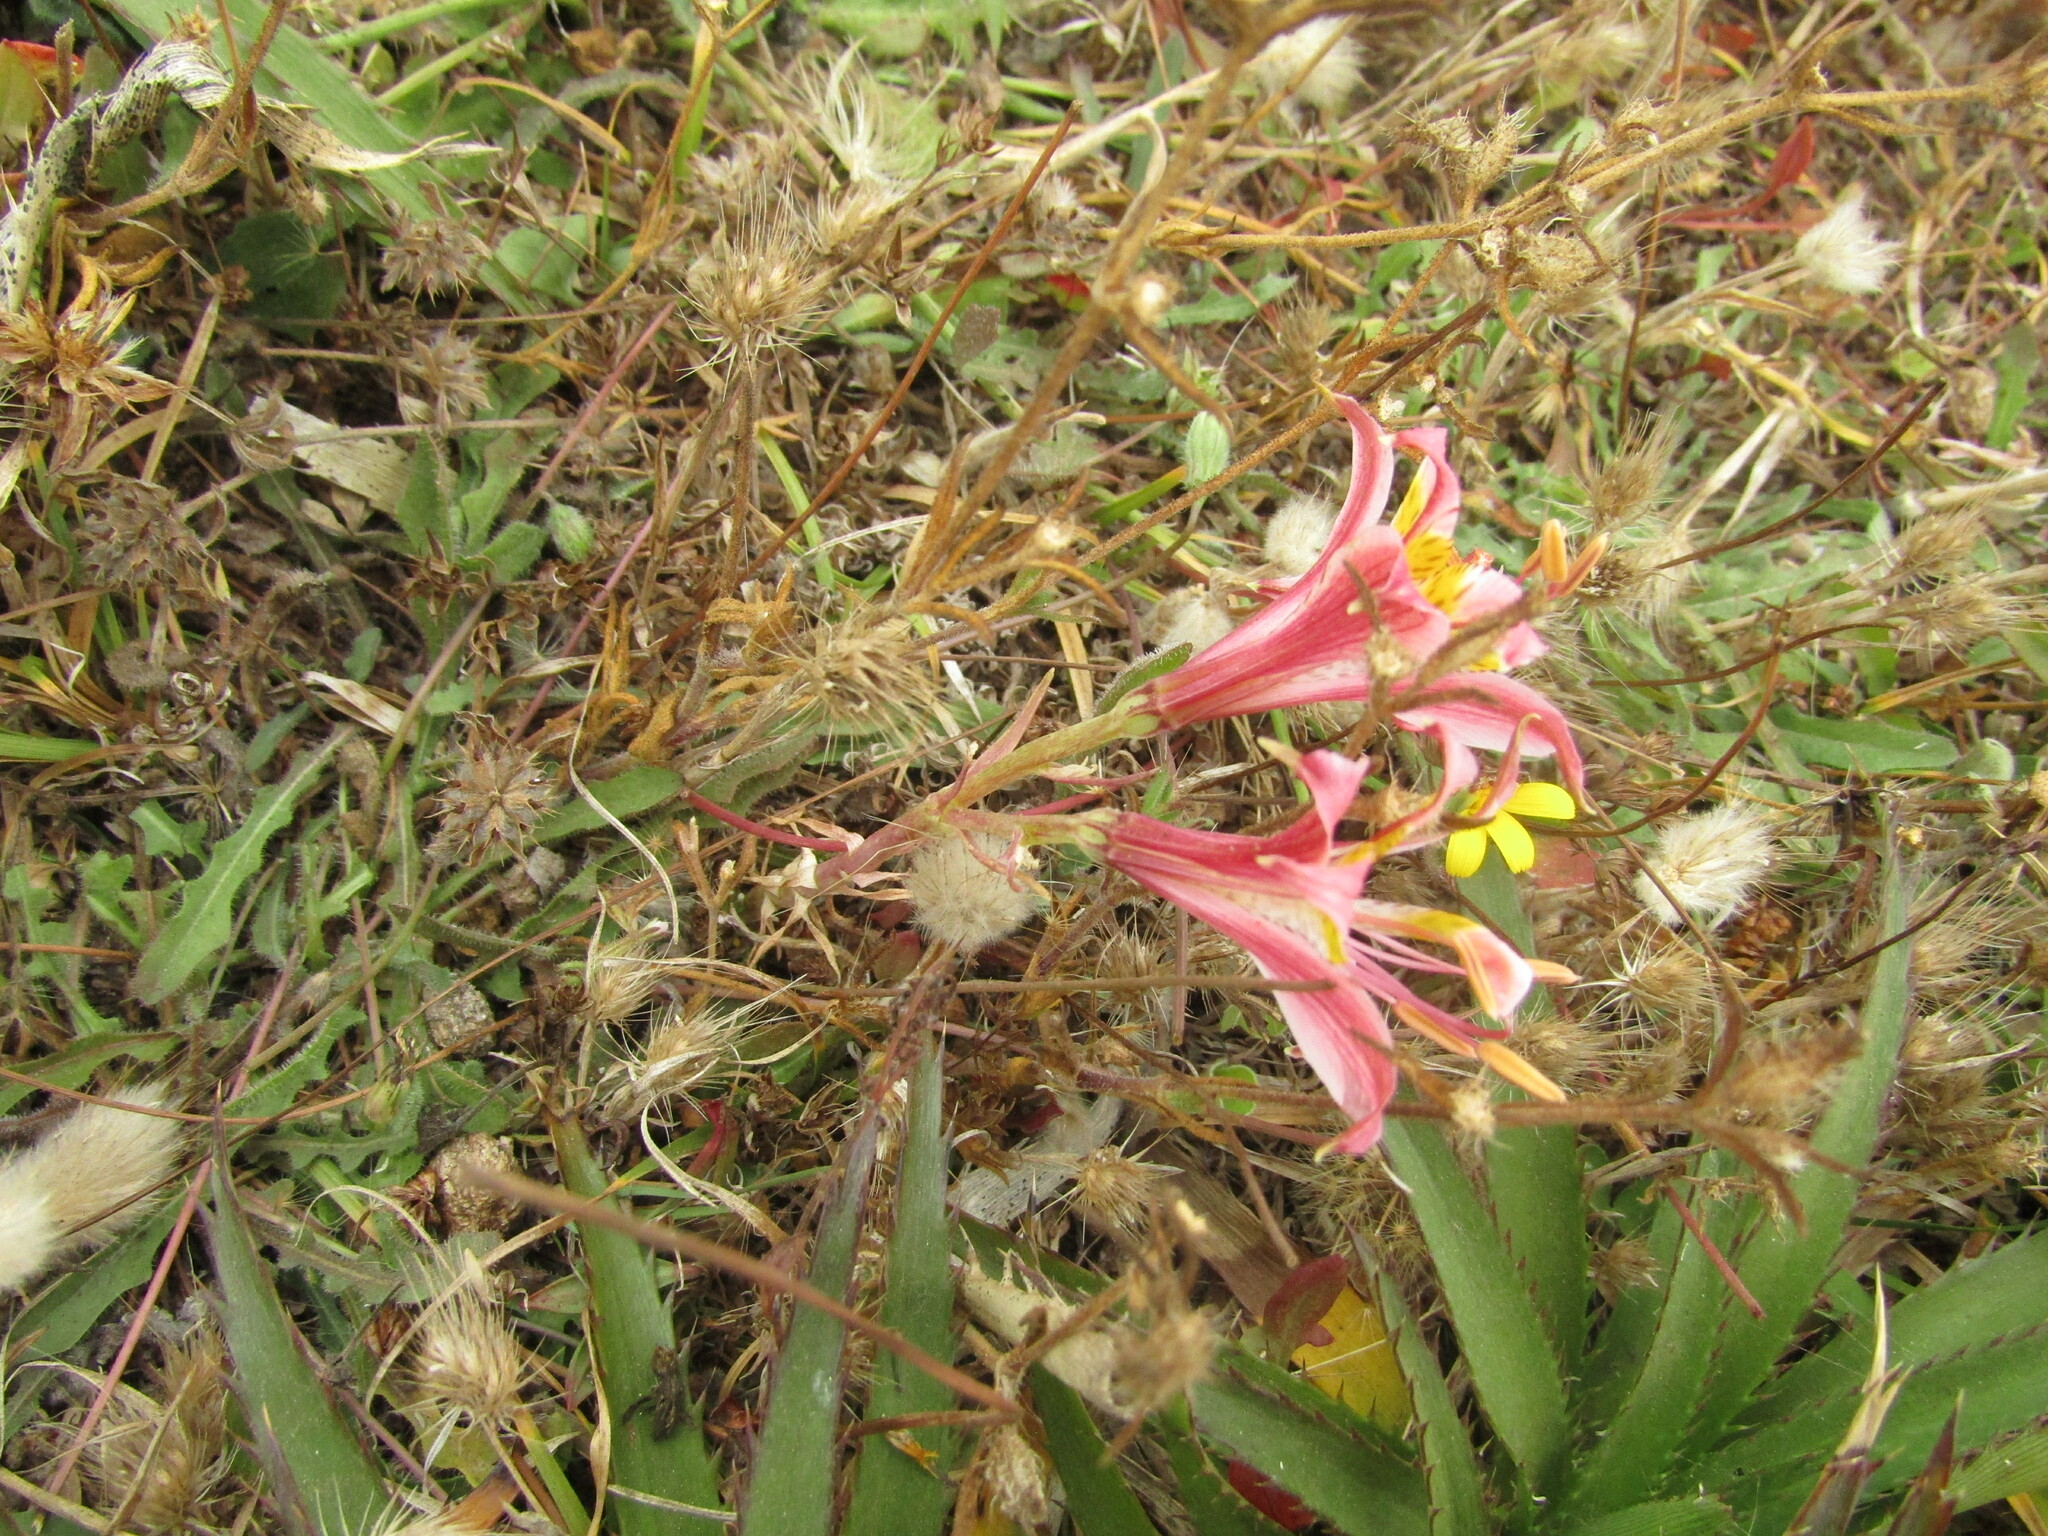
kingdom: Plantae
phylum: Tracheophyta
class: Liliopsida
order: Liliales
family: Alstroemeriaceae
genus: Alstroemeria
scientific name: Alstroemeria hookeri
